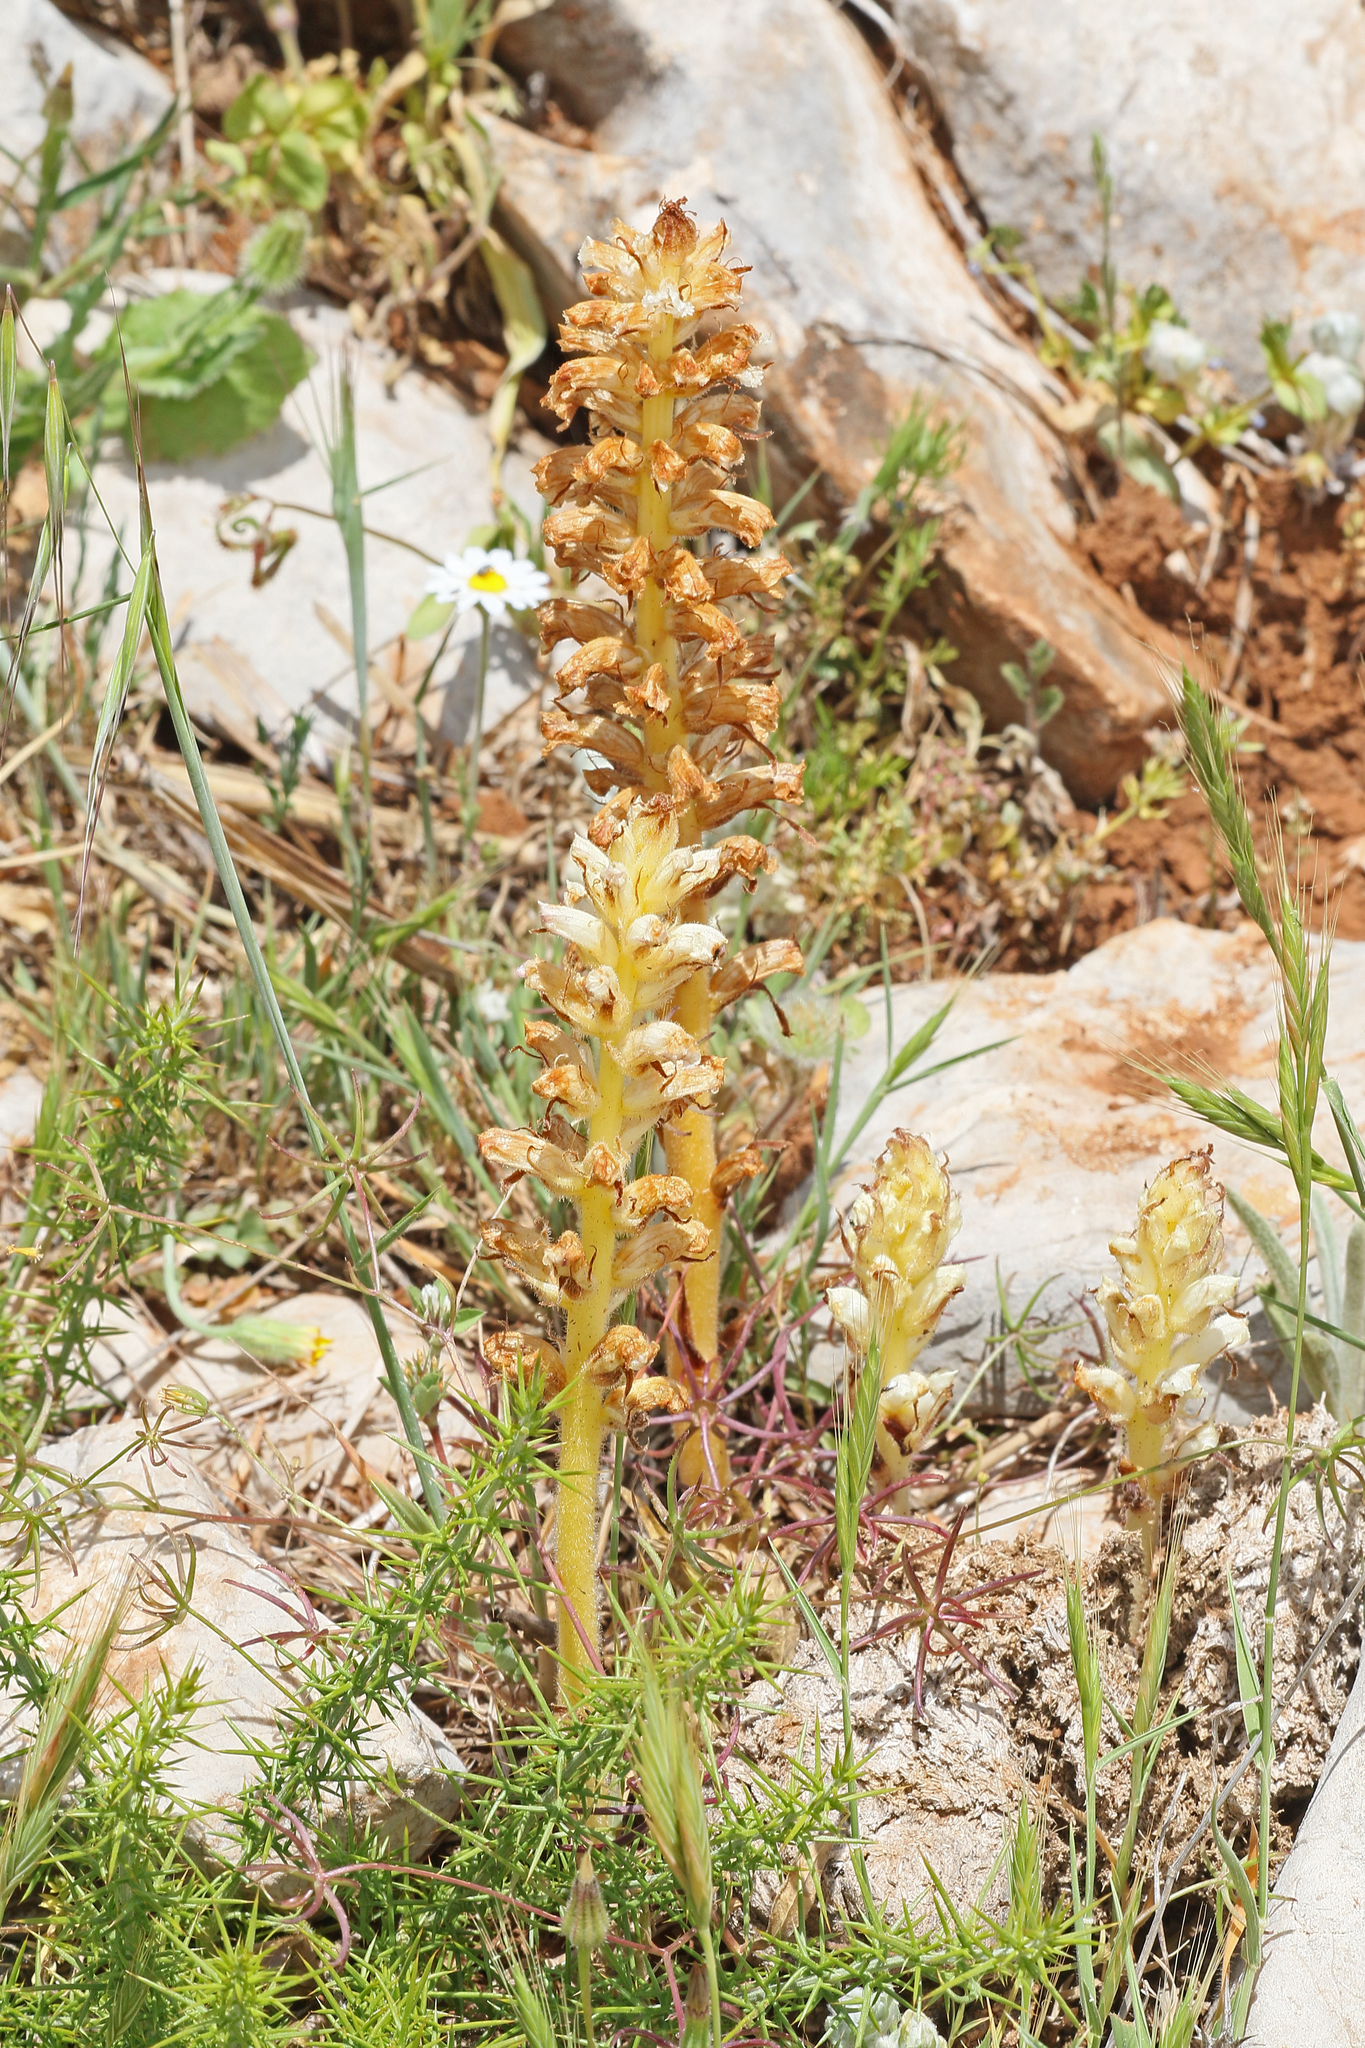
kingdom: Plantae
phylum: Tracheophyta
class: Magnoliopsida
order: Lamiales
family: Orobanchaceae
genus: Orobanche
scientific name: Orobanche minor
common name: Common broomrape
